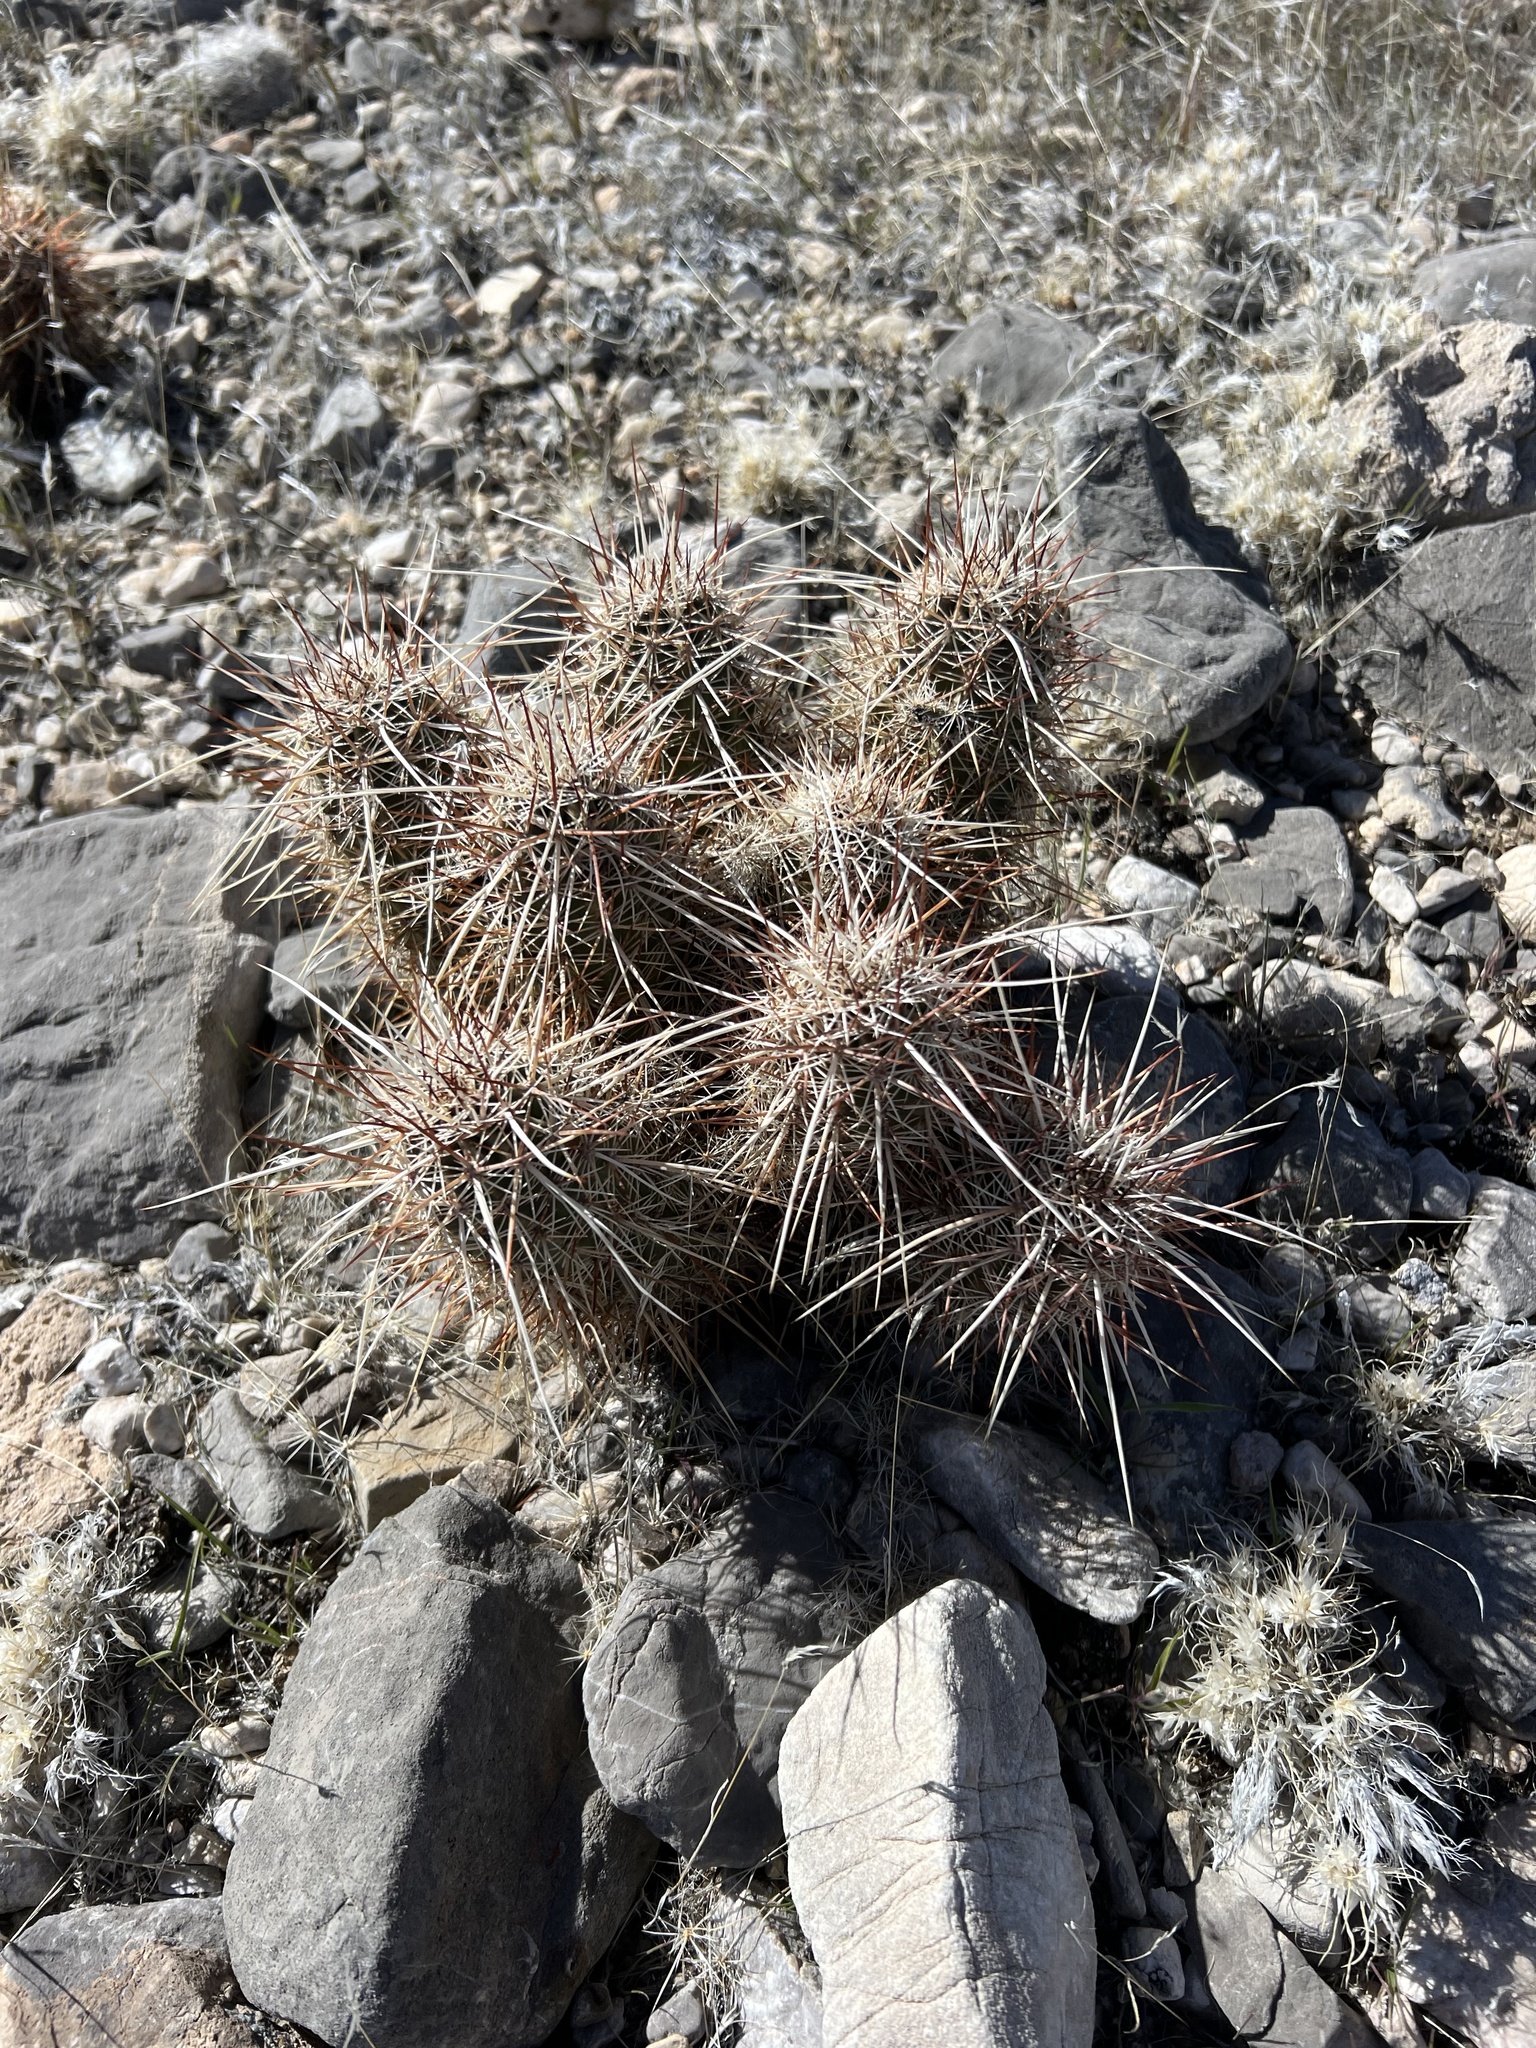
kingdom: Plantae
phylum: Tracheophyta
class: Magnoliopsida
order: Caryophyllales
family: Cactaceae
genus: Echinocereus
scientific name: Echinocereus engelmannii
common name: Engelmann's hedgehog cactus
